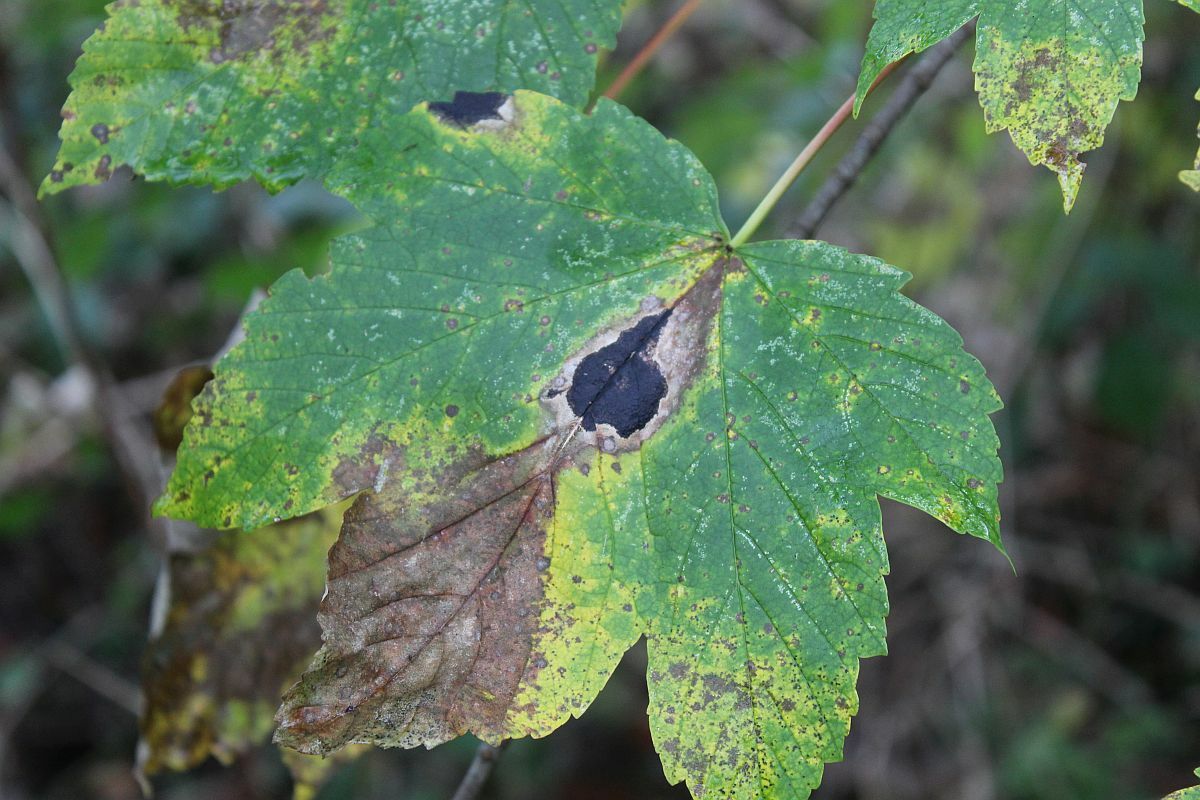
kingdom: Fungi
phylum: Ascomycota
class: Leotiomycetes
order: Rhytismatales
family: Rhytismataceae
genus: Rhytisma
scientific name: Rhytisma acerinum
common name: European tar spot
